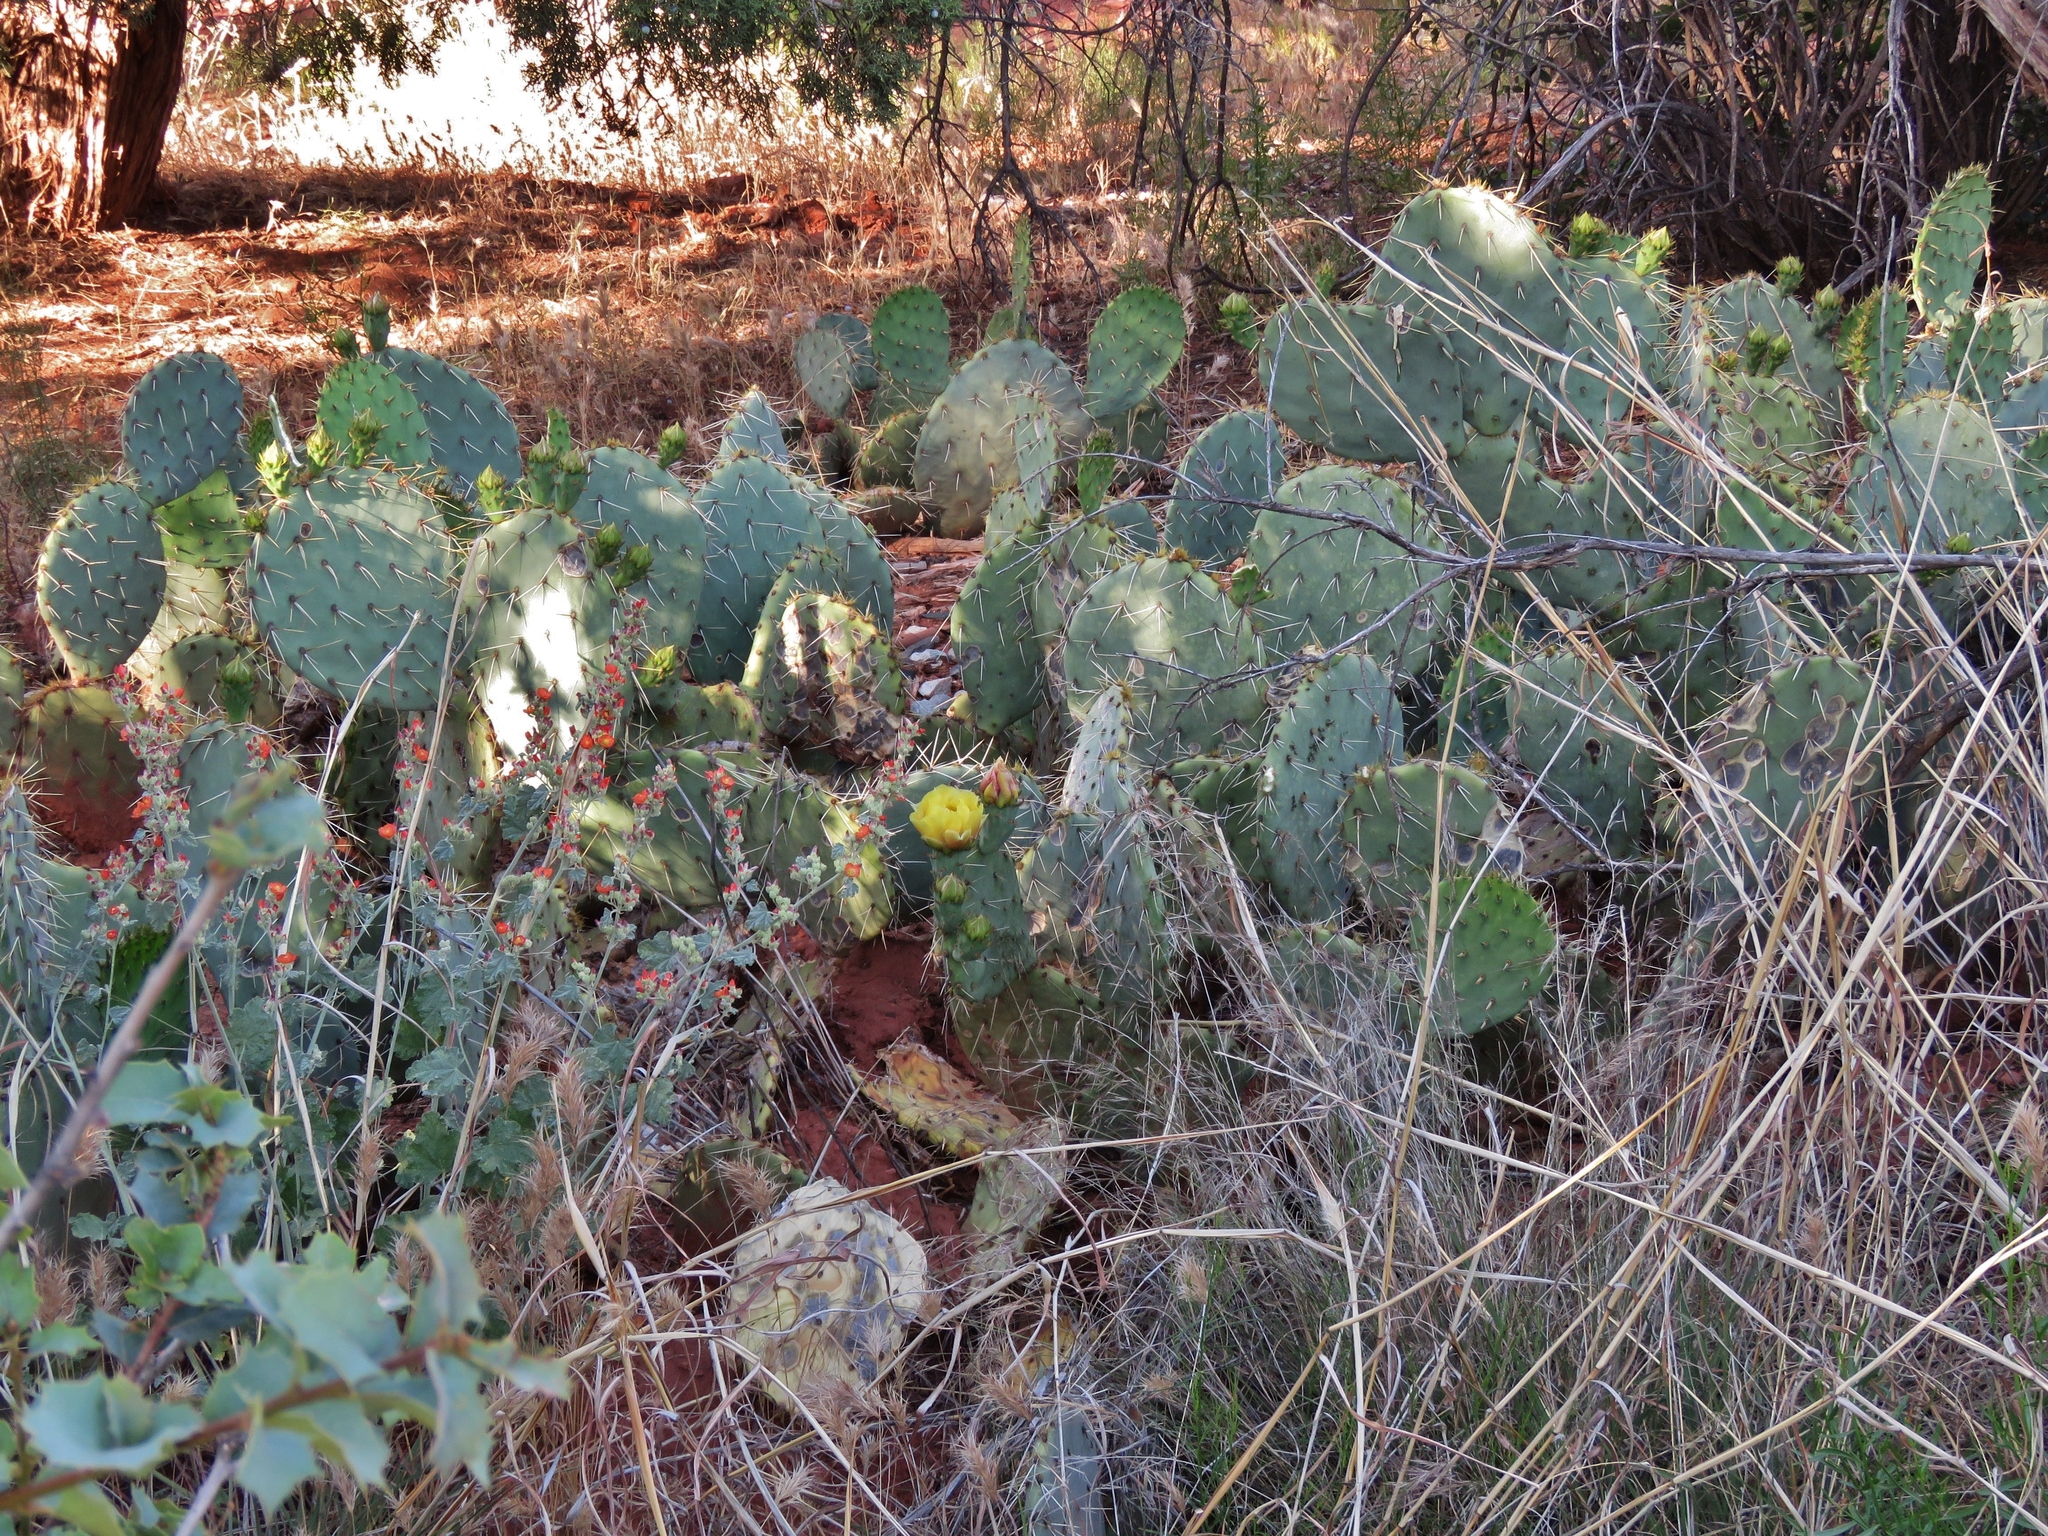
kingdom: Plantae
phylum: Tracheophyta
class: Magnoliopsida
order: Caryophyllales
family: Cactaceae
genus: Opuntia
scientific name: Opuntia engelmannii
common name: Cactus-apple
